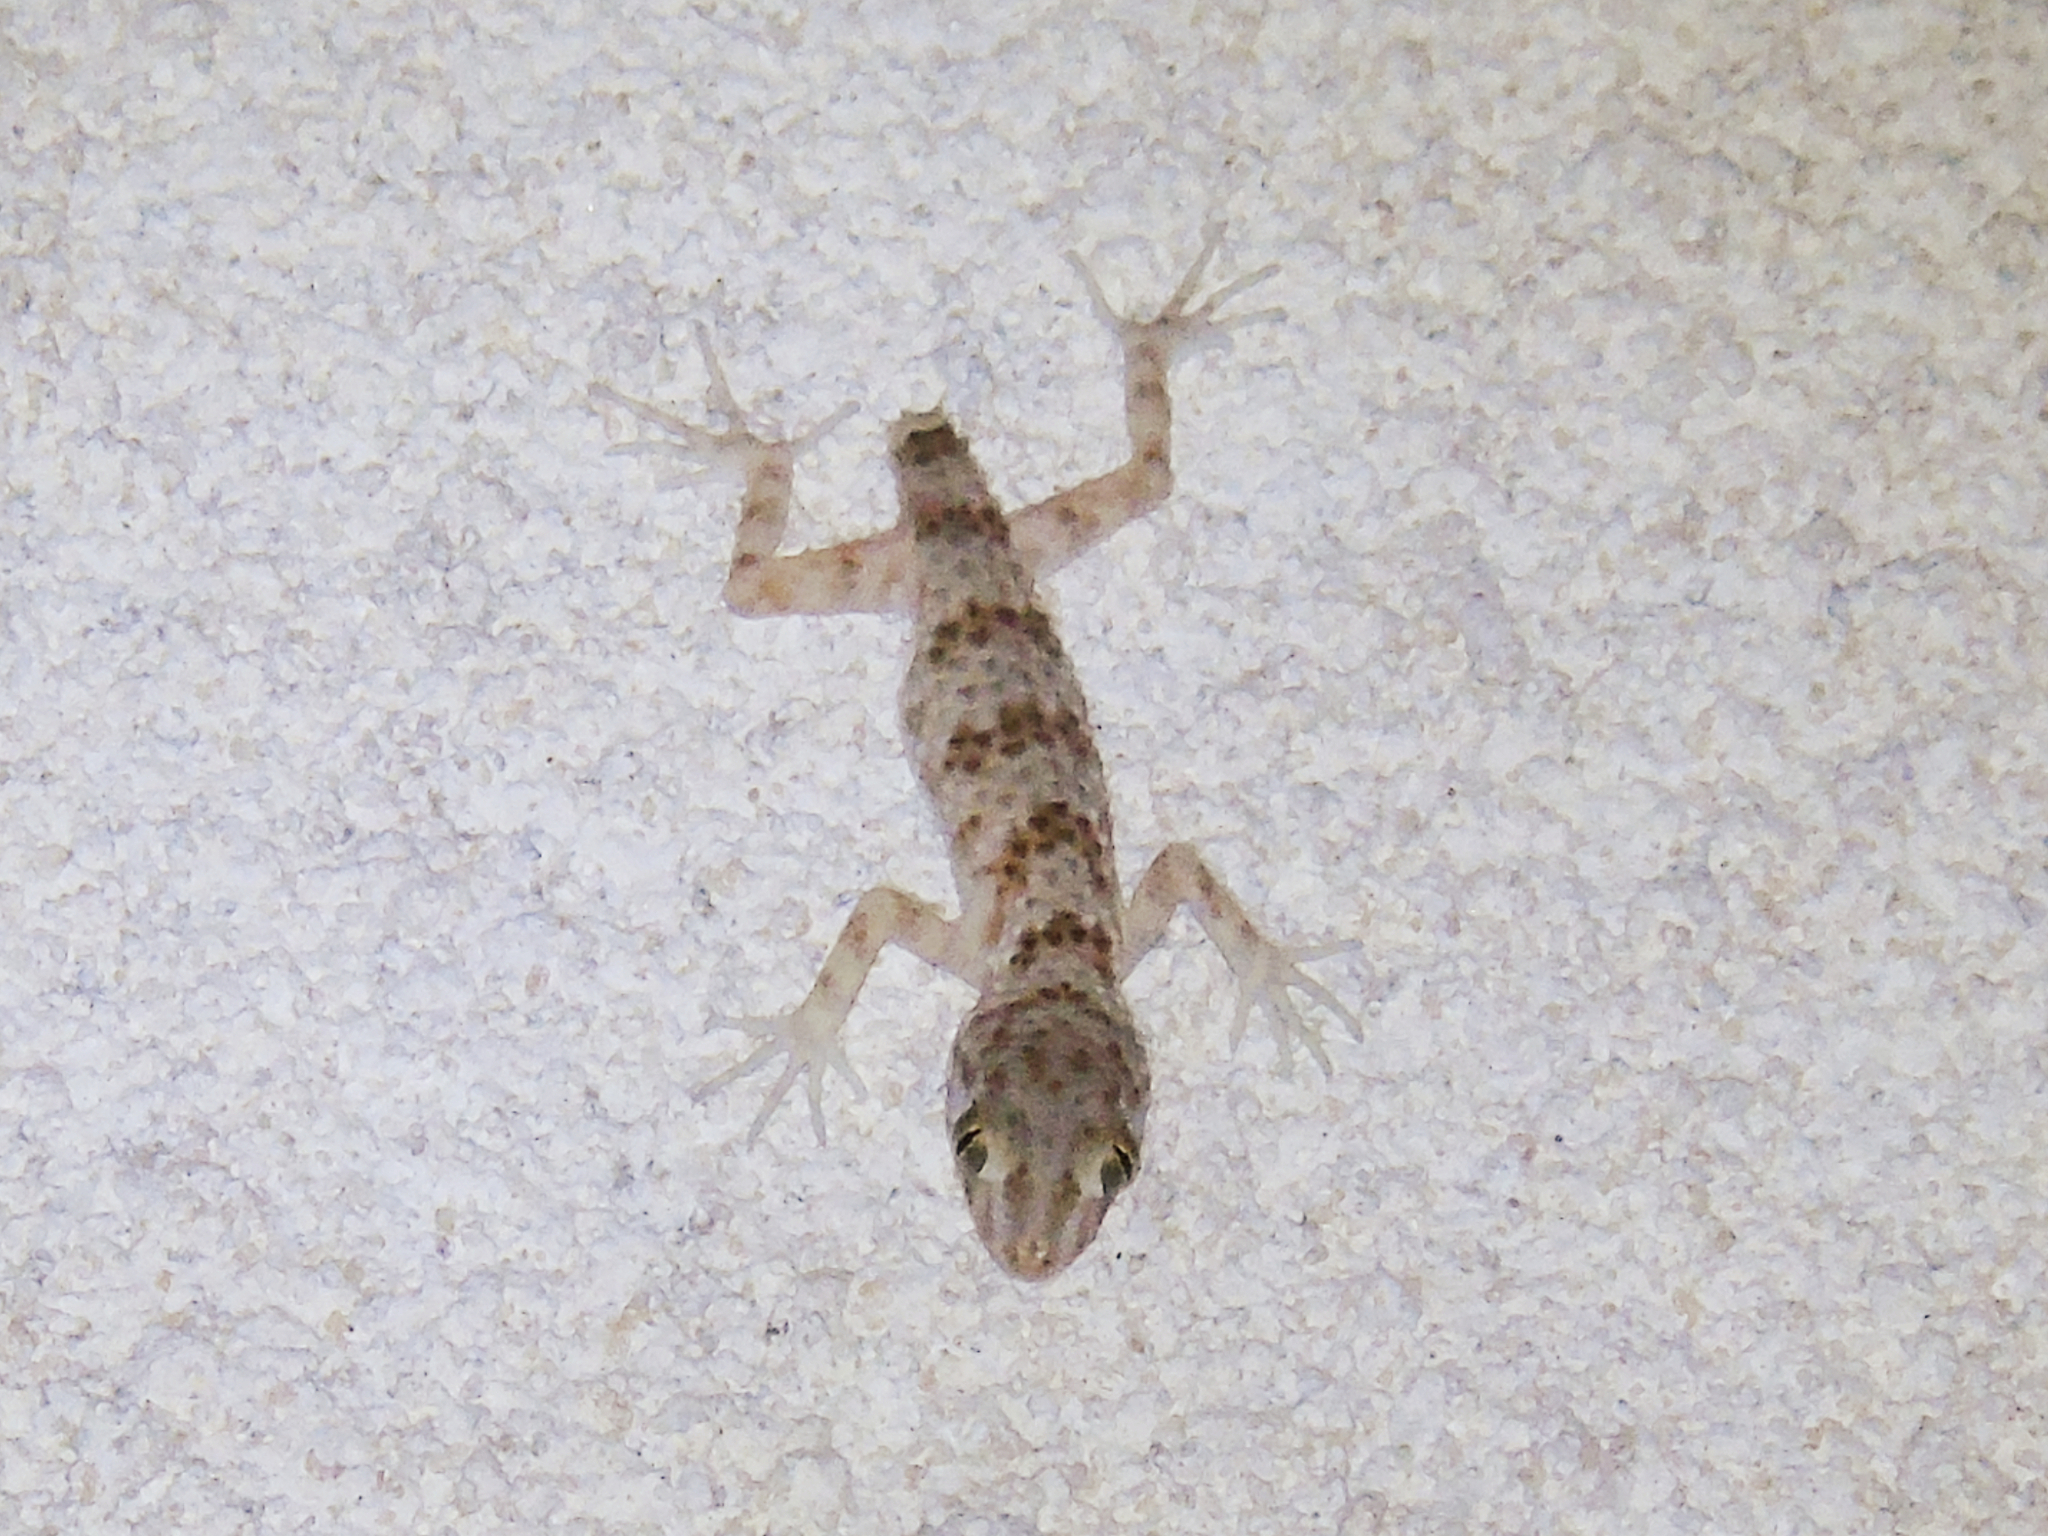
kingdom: Animalia
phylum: Chordata
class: Squamata
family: Gekkonidae
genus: Tenuidactylus
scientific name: Tenuidactylus caspius
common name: Caspian bent-toed gecko
